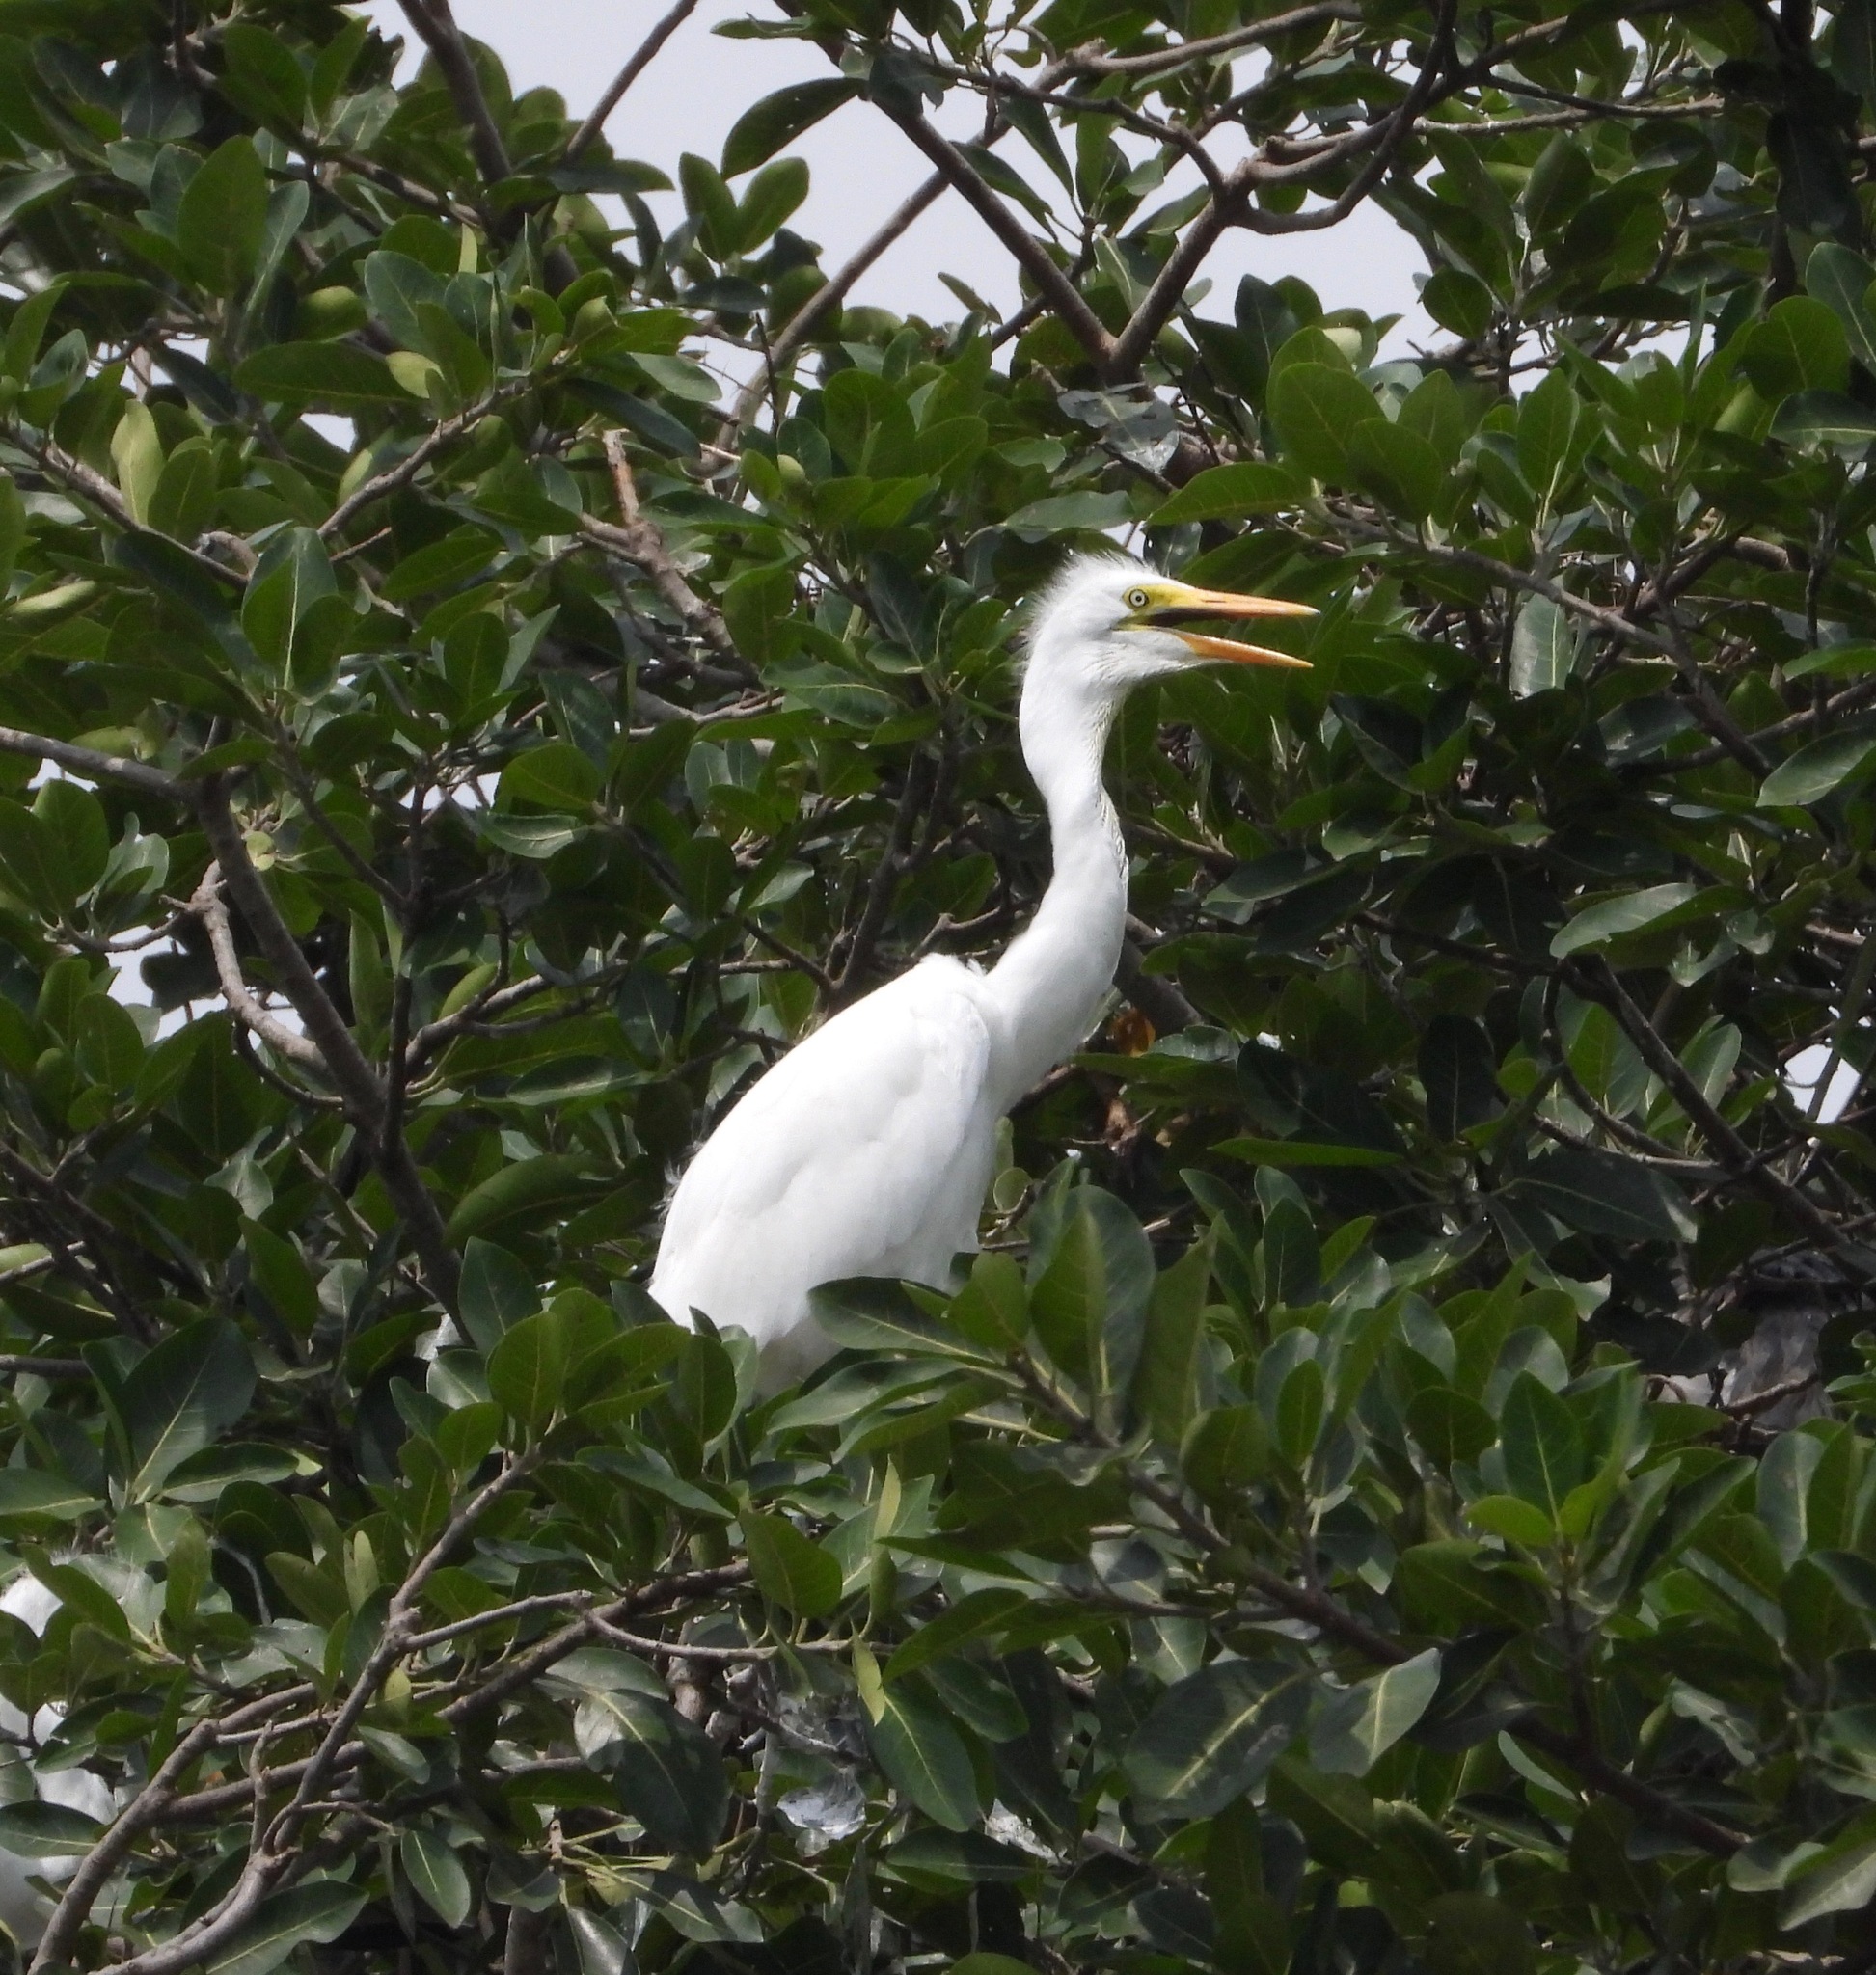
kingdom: Animalia
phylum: Chordata
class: Aves
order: Pelecaniformes
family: Ardeidae
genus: Ardea
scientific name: Ardea alba
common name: Great egret
